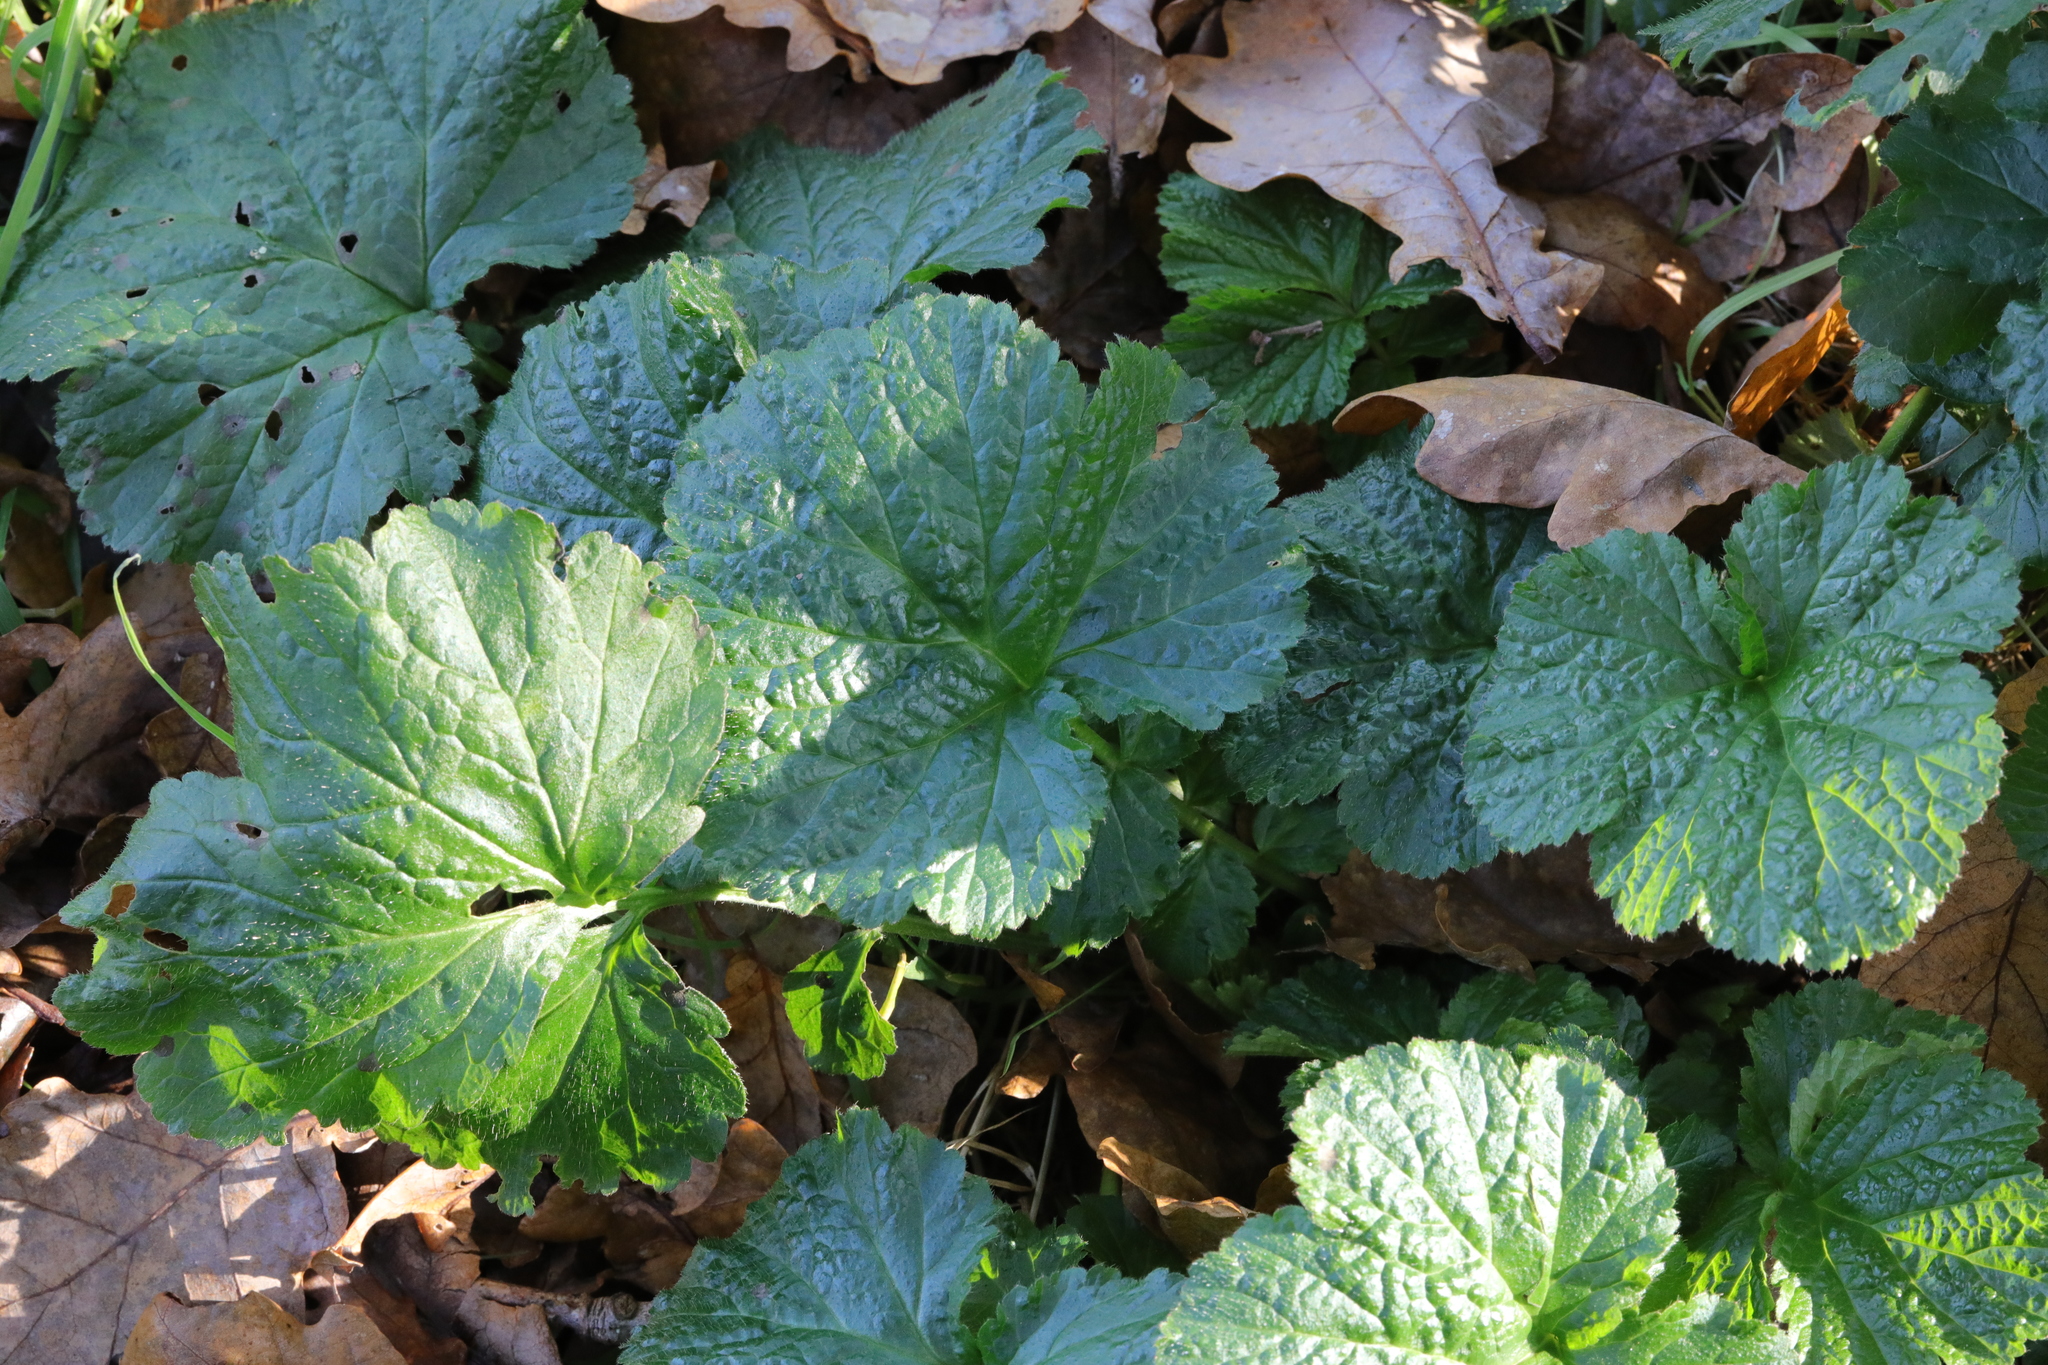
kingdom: Plantae
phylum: Tracheophyta
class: Magnoliopsida
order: Rosales
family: Rosaceae
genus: Geum
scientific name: Geum urbanum
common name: Wood avens
